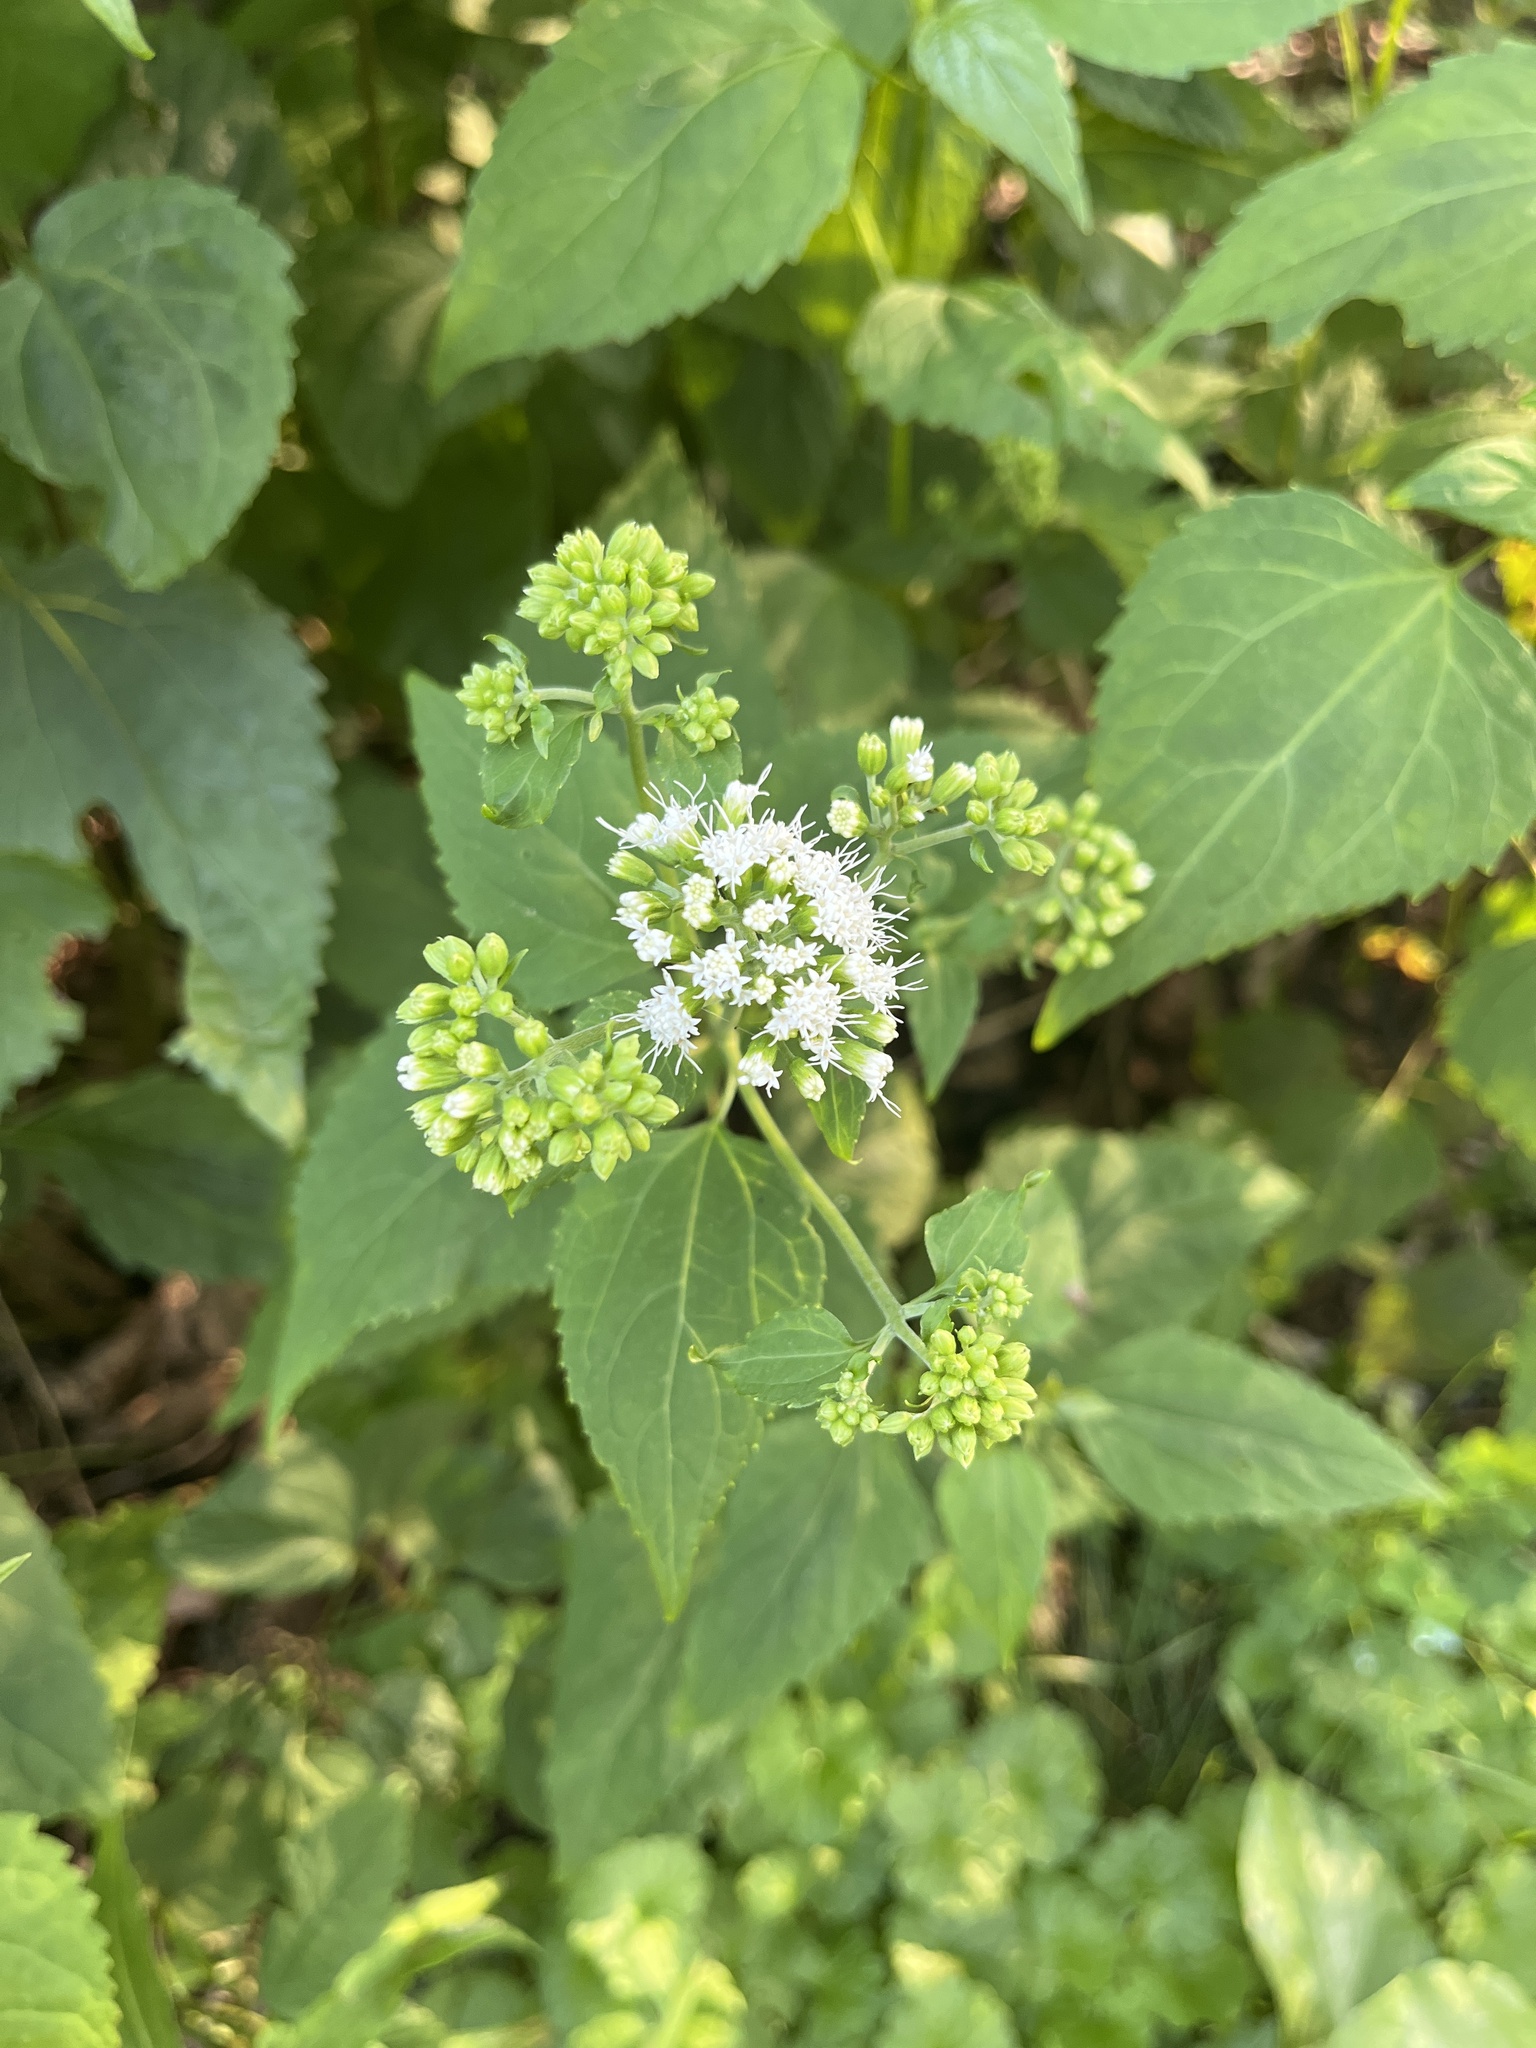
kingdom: Plantae
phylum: Tracheophyta
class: Magnoliopsida
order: Asterales
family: Asteraceae
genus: Ageratina
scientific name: Ageratina altissima
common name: White snakeroot
